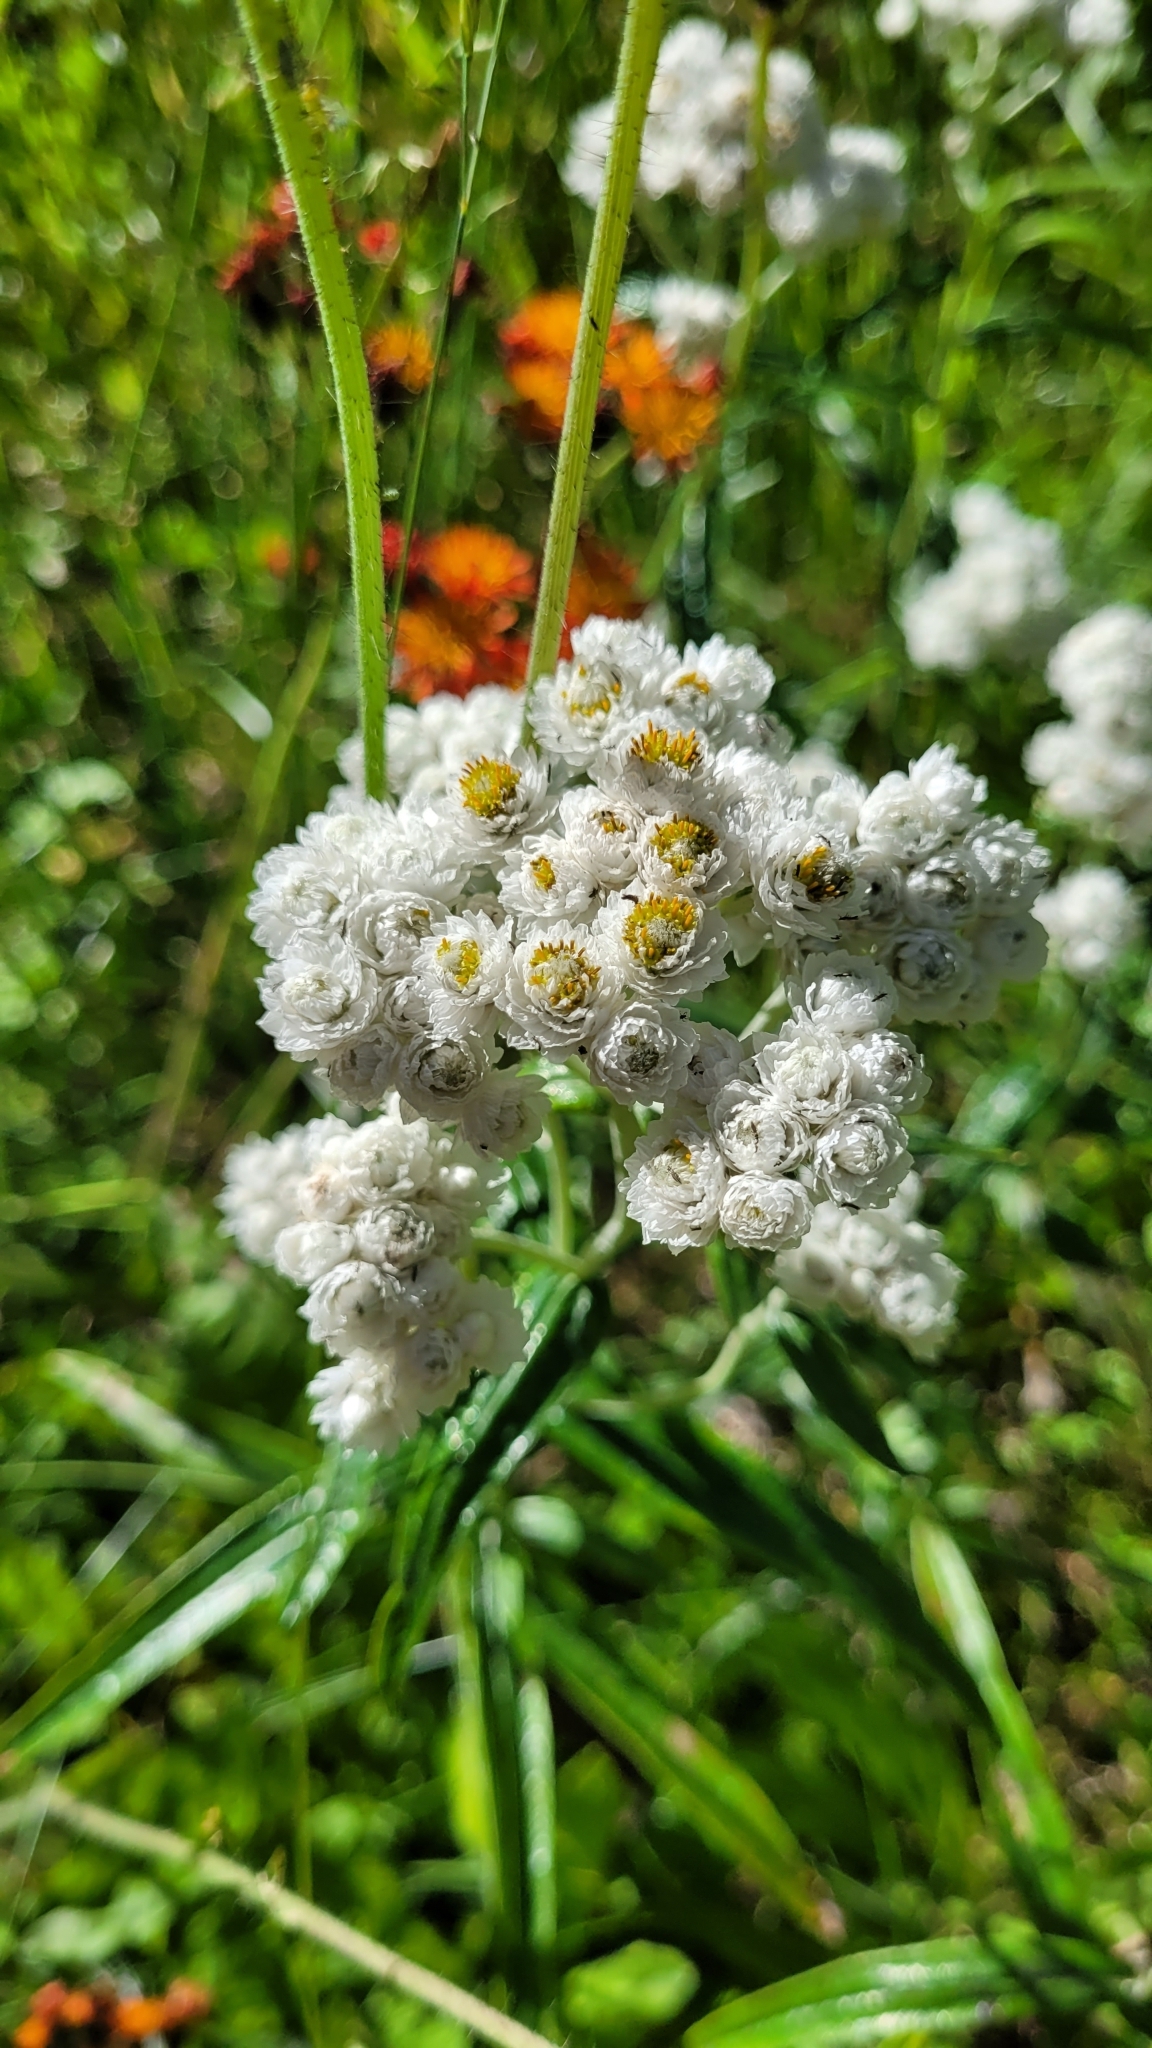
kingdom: Plantae
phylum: Tracheophyta
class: Magnoliopsida
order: Asterales
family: Asteraceae
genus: Anaphalis
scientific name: Anaphalis margaritacea
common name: Pearly everlasting
